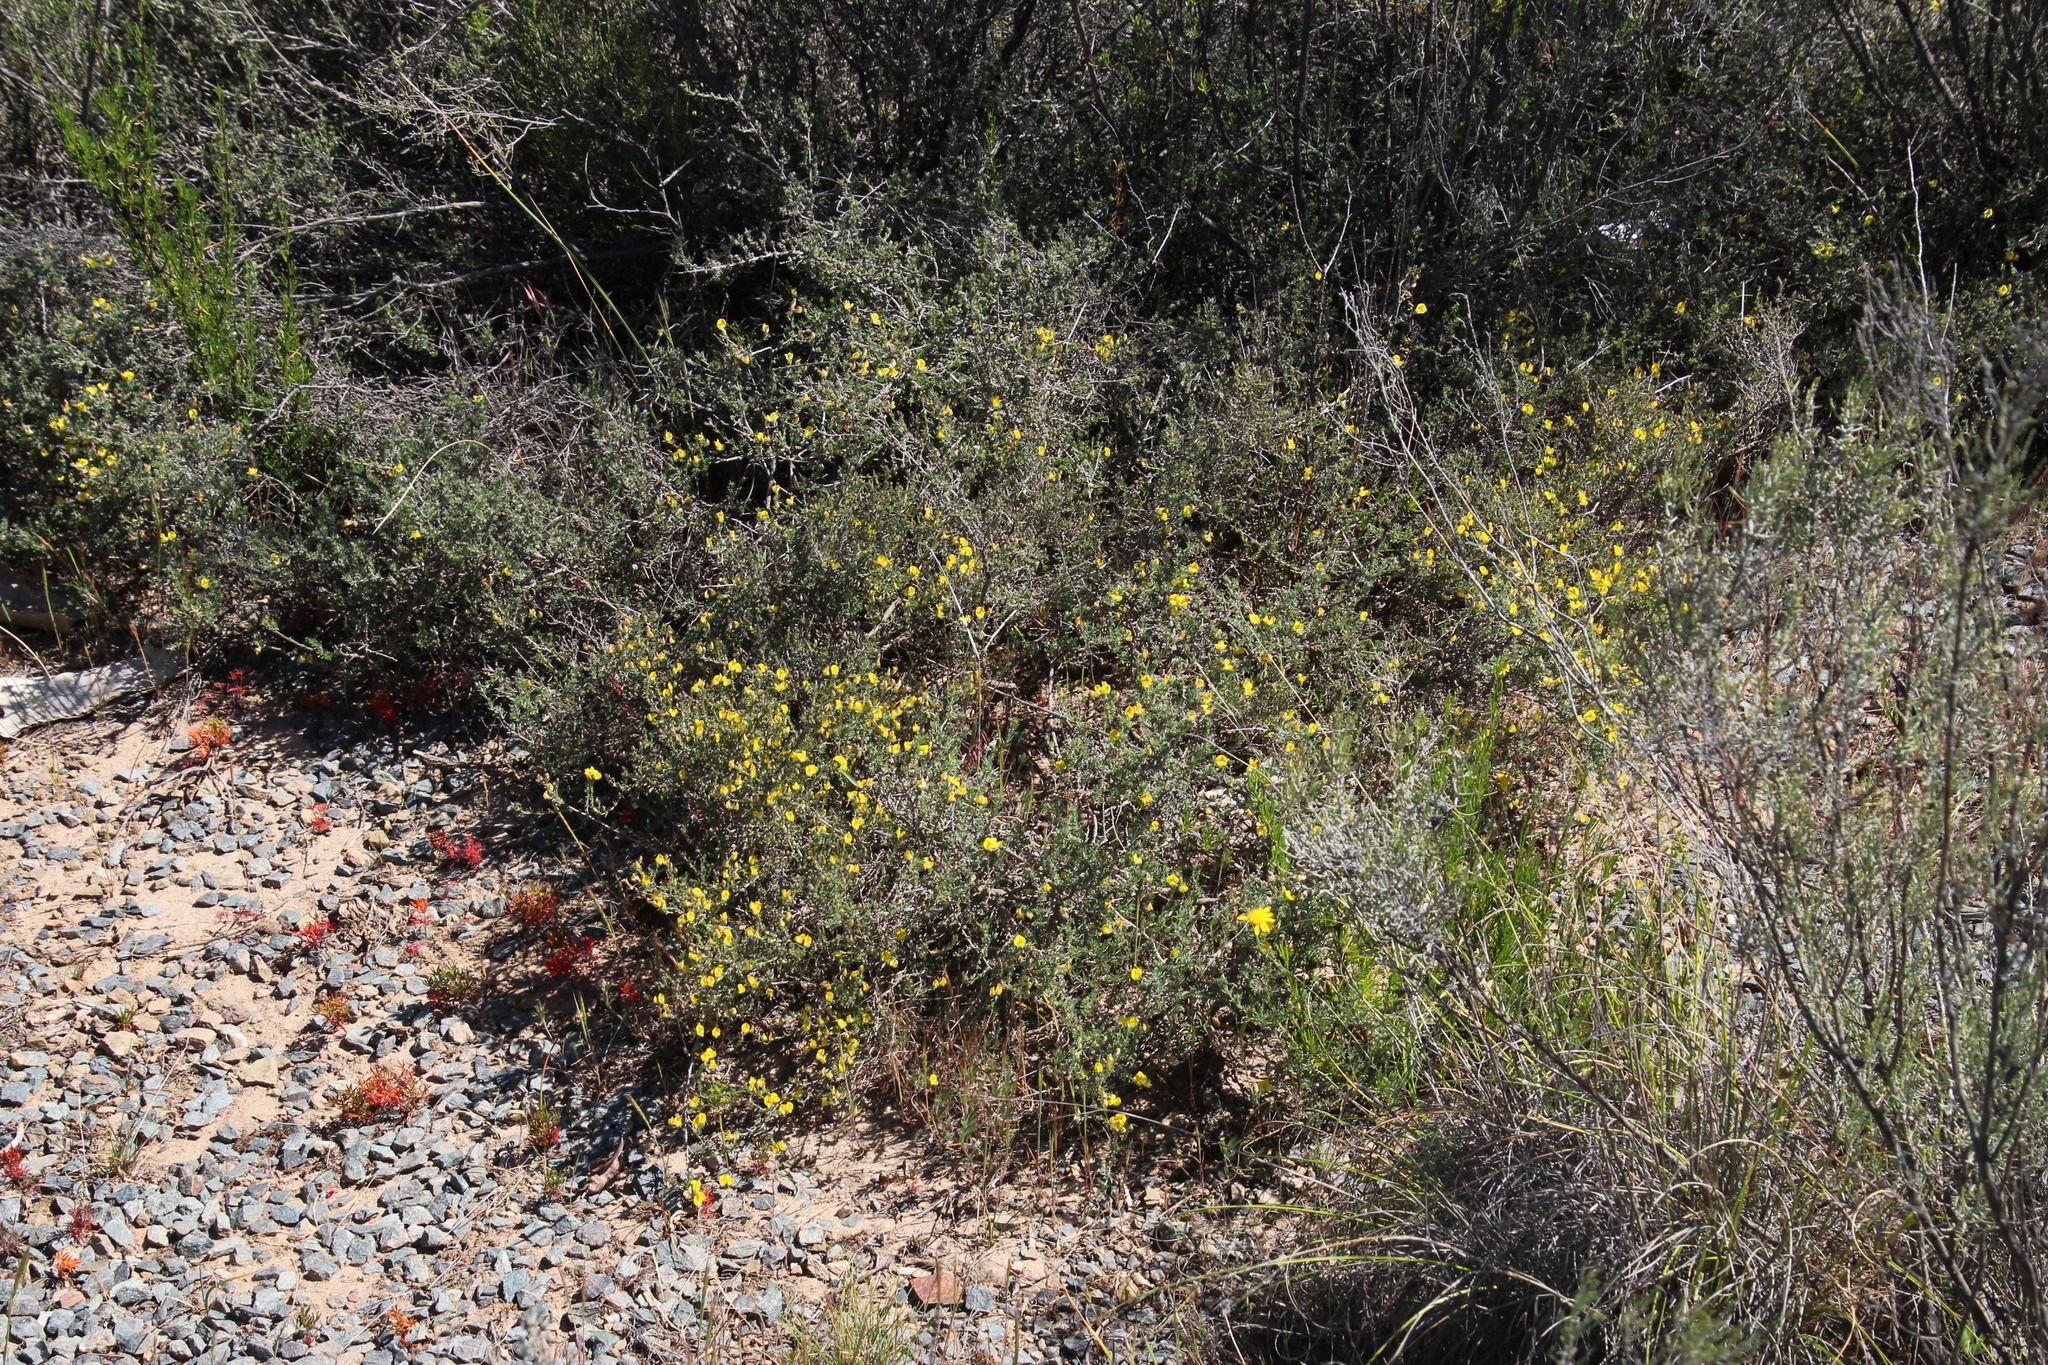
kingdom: Plantae
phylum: Tracheophyta
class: Magnoliopsida
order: Fabales
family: Fabaceae
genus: Indigofera
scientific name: Indigofera burchellii
